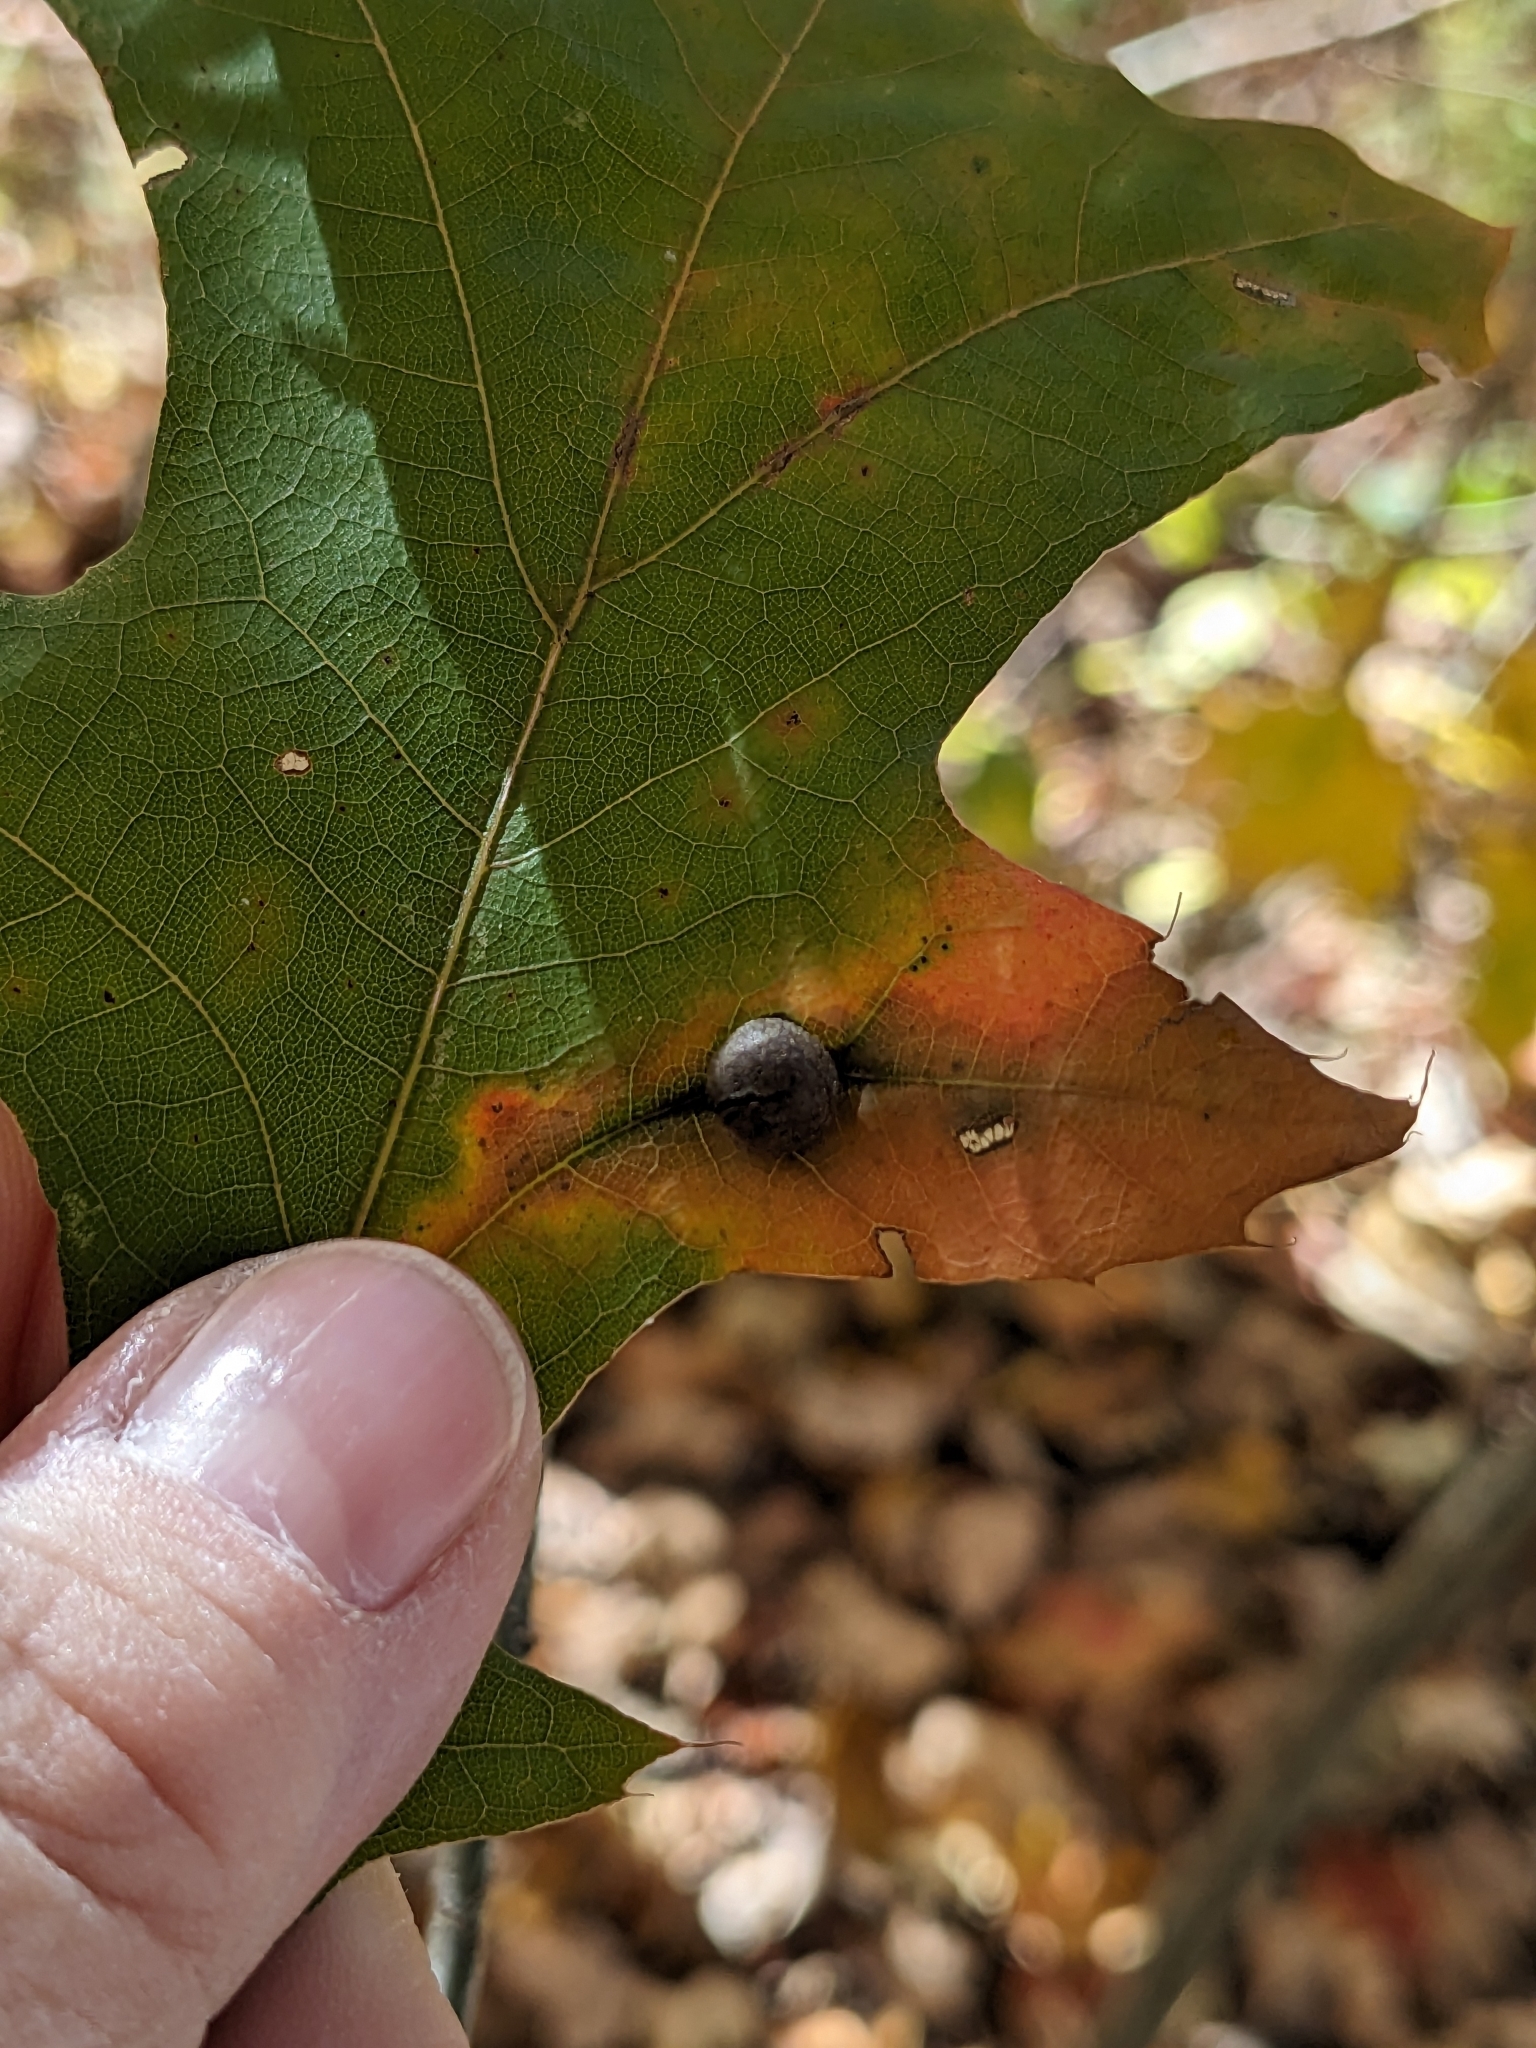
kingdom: Animalia
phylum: Arthropoda
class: Insecta
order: Diptera
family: Cecidomyiidae
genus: Polystepha
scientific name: Polystepha pilulae
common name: Oak leaf gall midge
